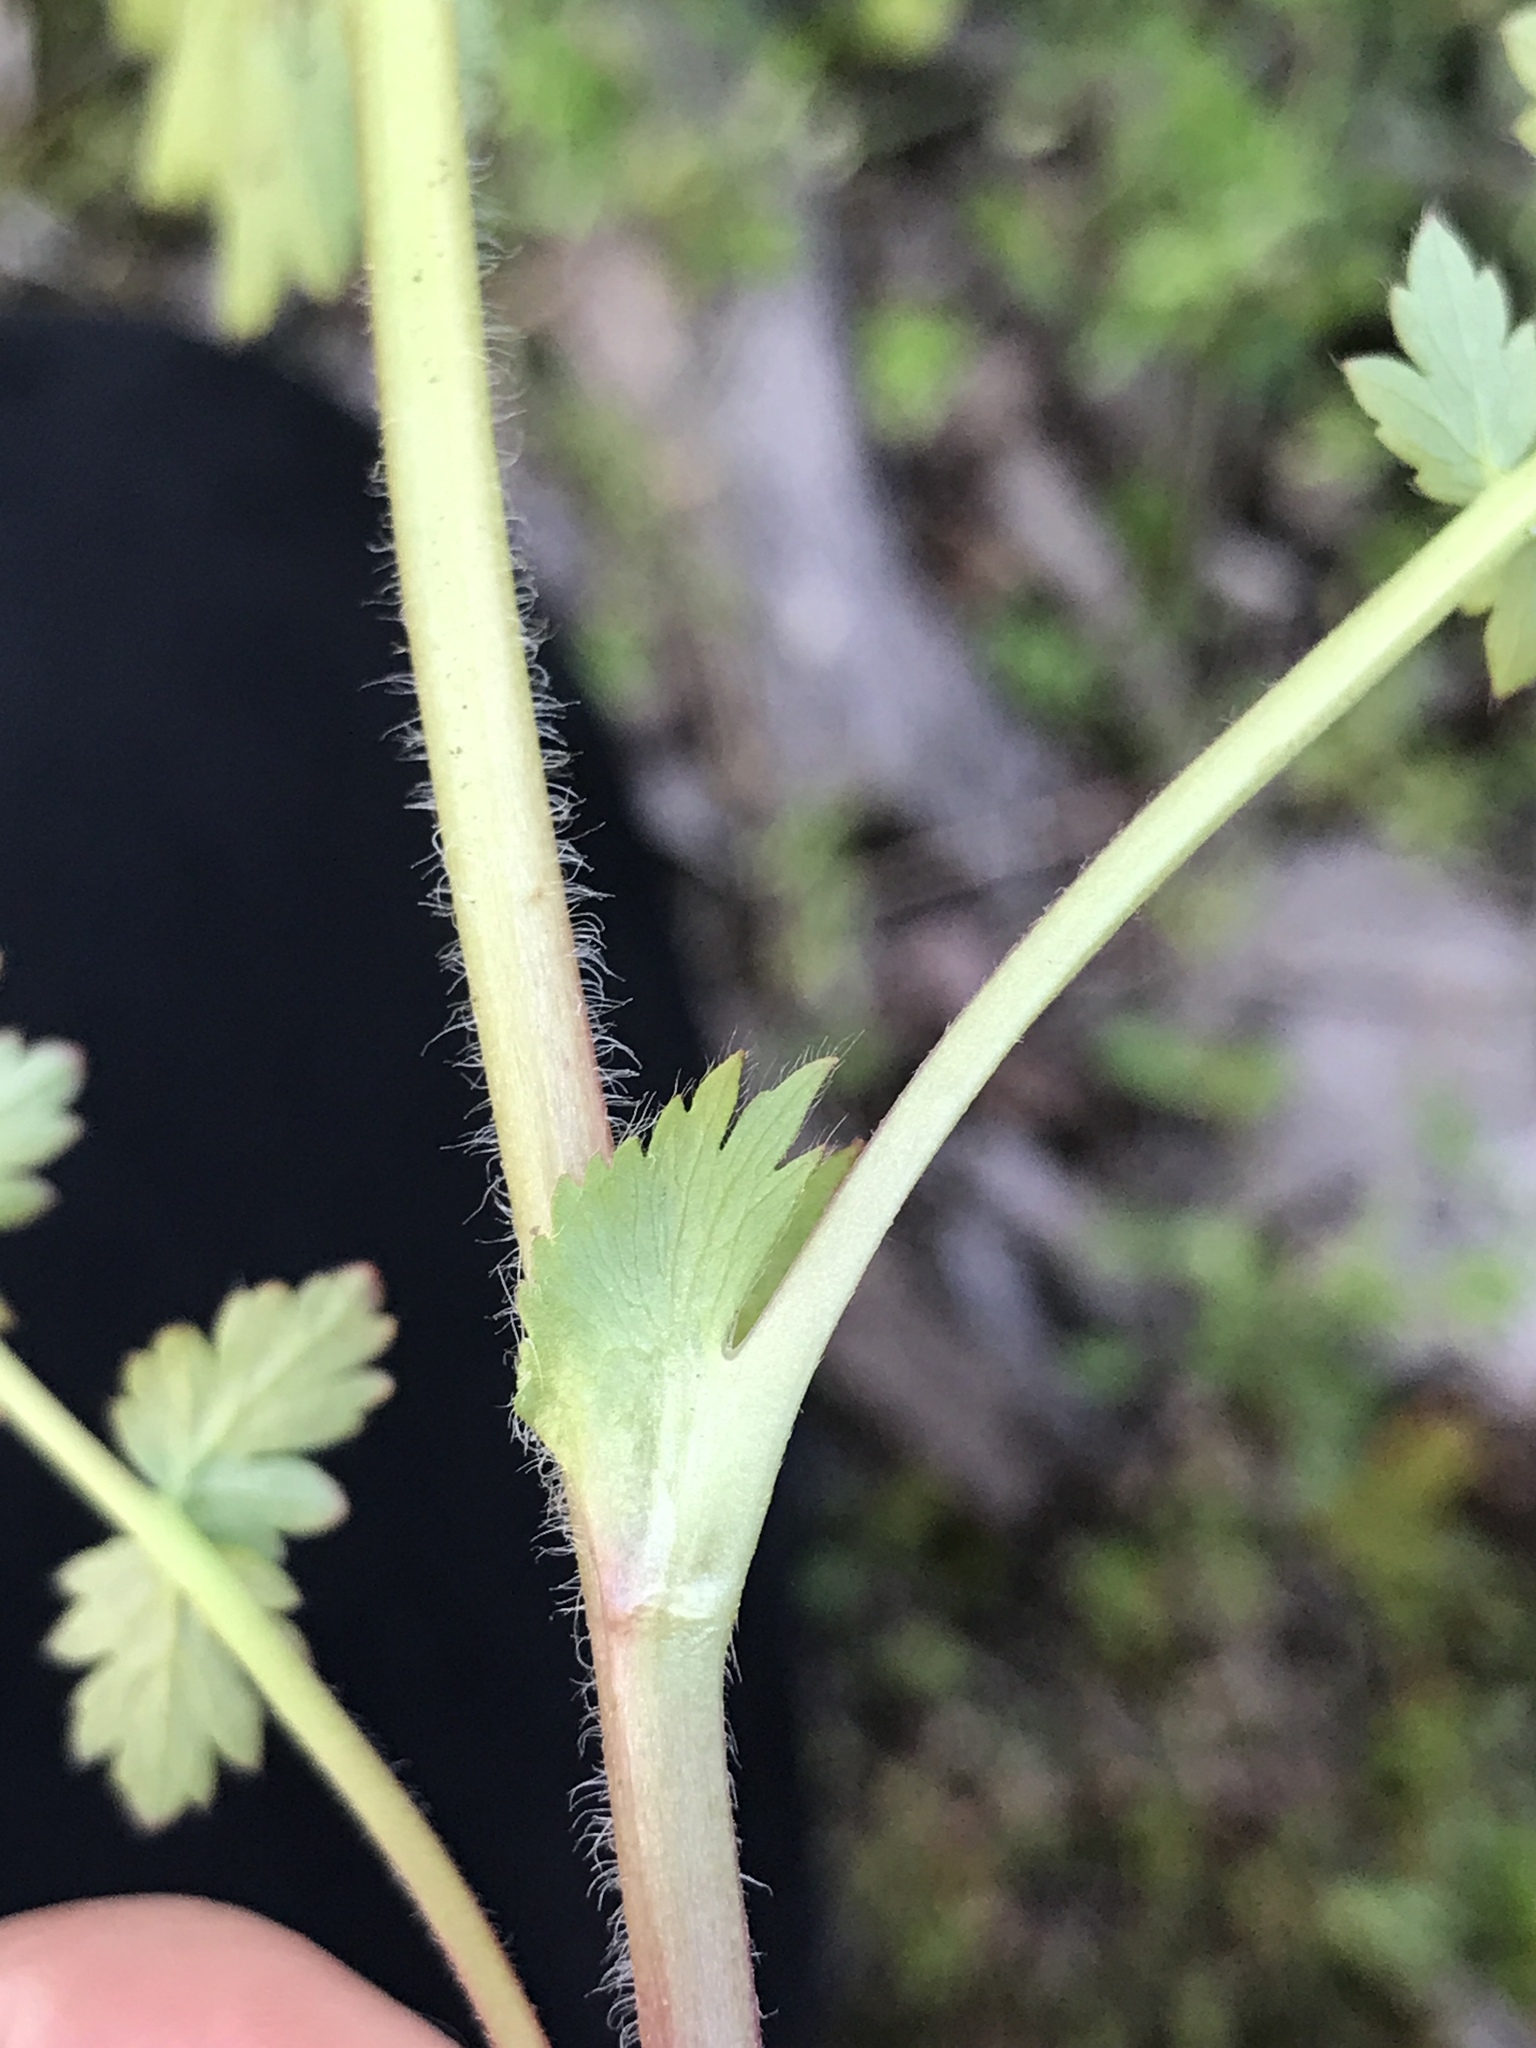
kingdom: Plantae
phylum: Tracheophyta
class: Magnoliopsida
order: Rosales
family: Rosaceae
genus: Geum
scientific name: Geum vernum
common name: Spring avens
